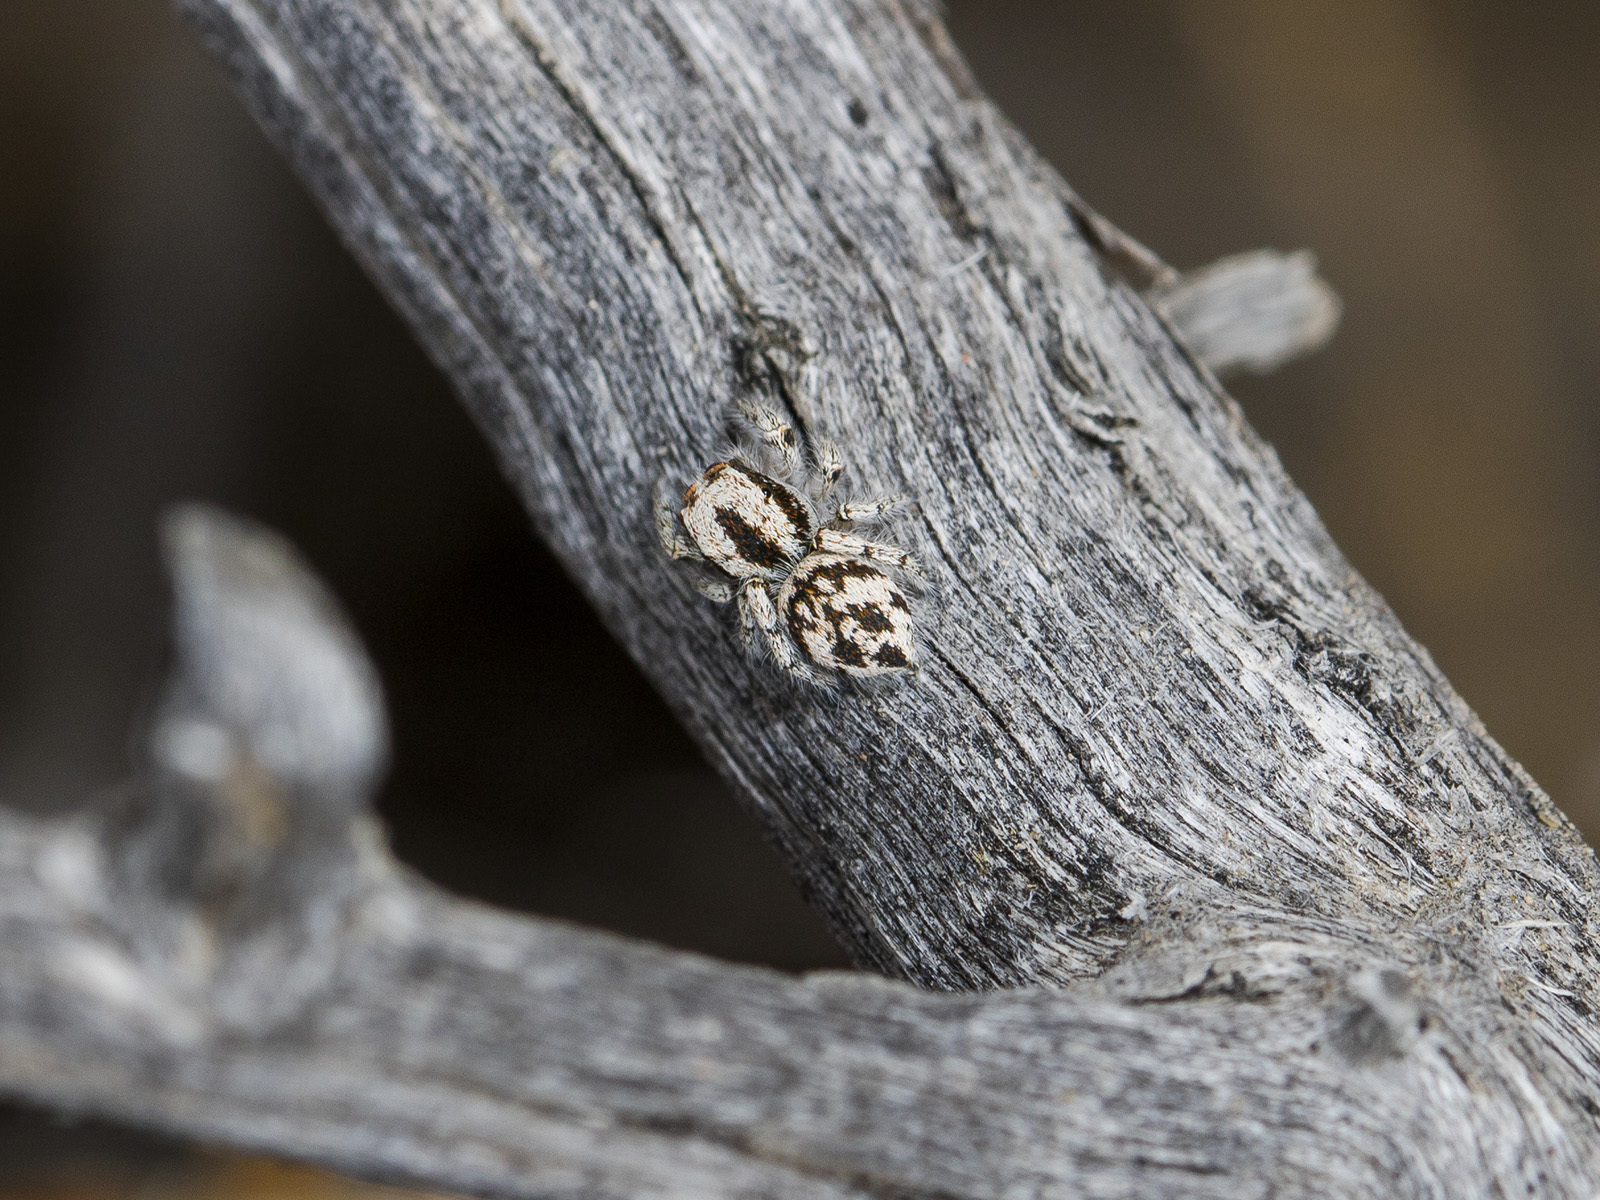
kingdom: Animalia
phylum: Arthropoda
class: Arachnida
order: Araneae
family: Salticidae
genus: Pseudomogrus
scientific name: Pseudomogrus dalaensis
